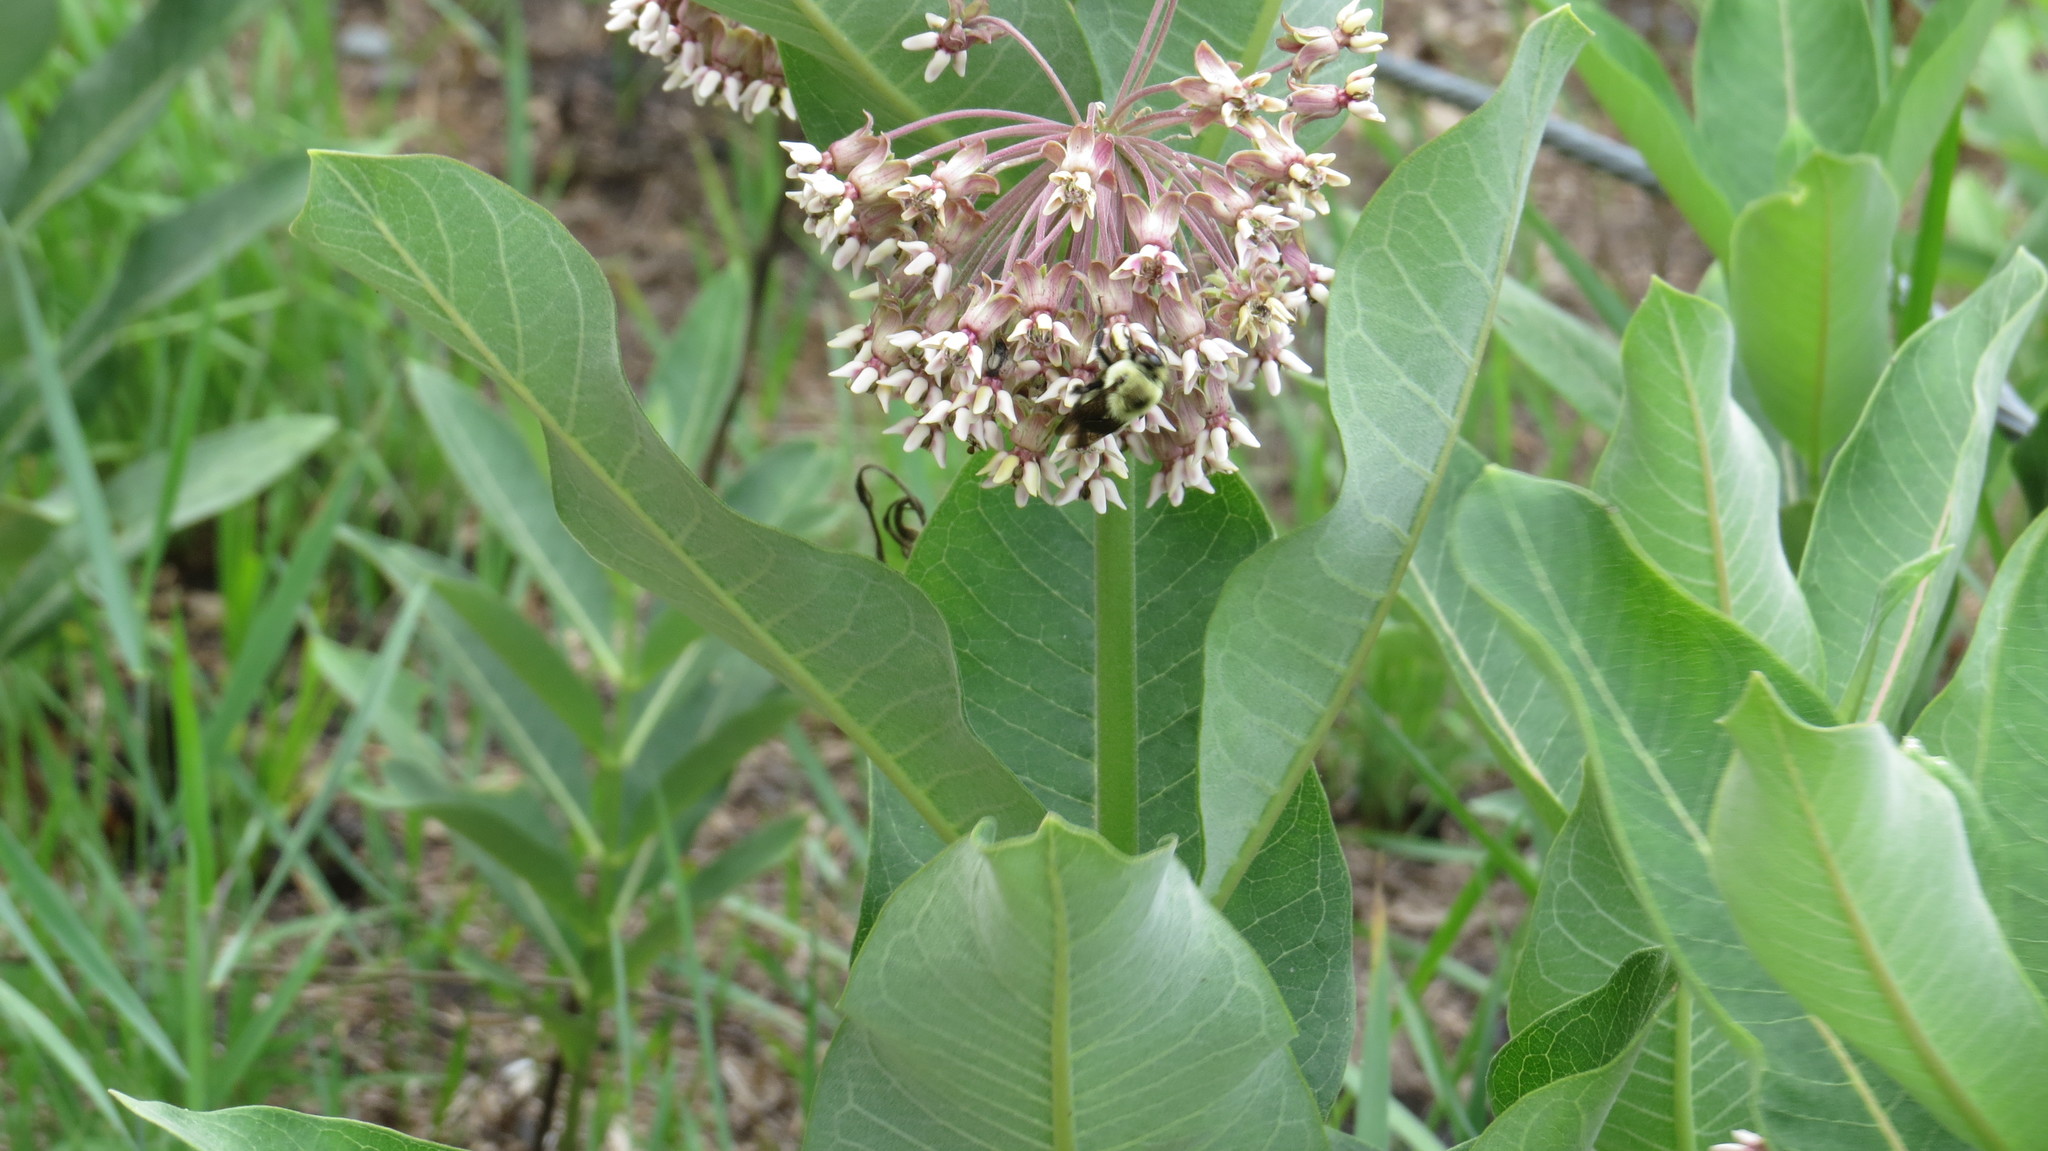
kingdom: Plantae
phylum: Tracheophyta
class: Magnoliopsida
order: Gentianales
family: Apocynaceae
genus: Asclepias
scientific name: Asclepias syriaca
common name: Common milkweed
